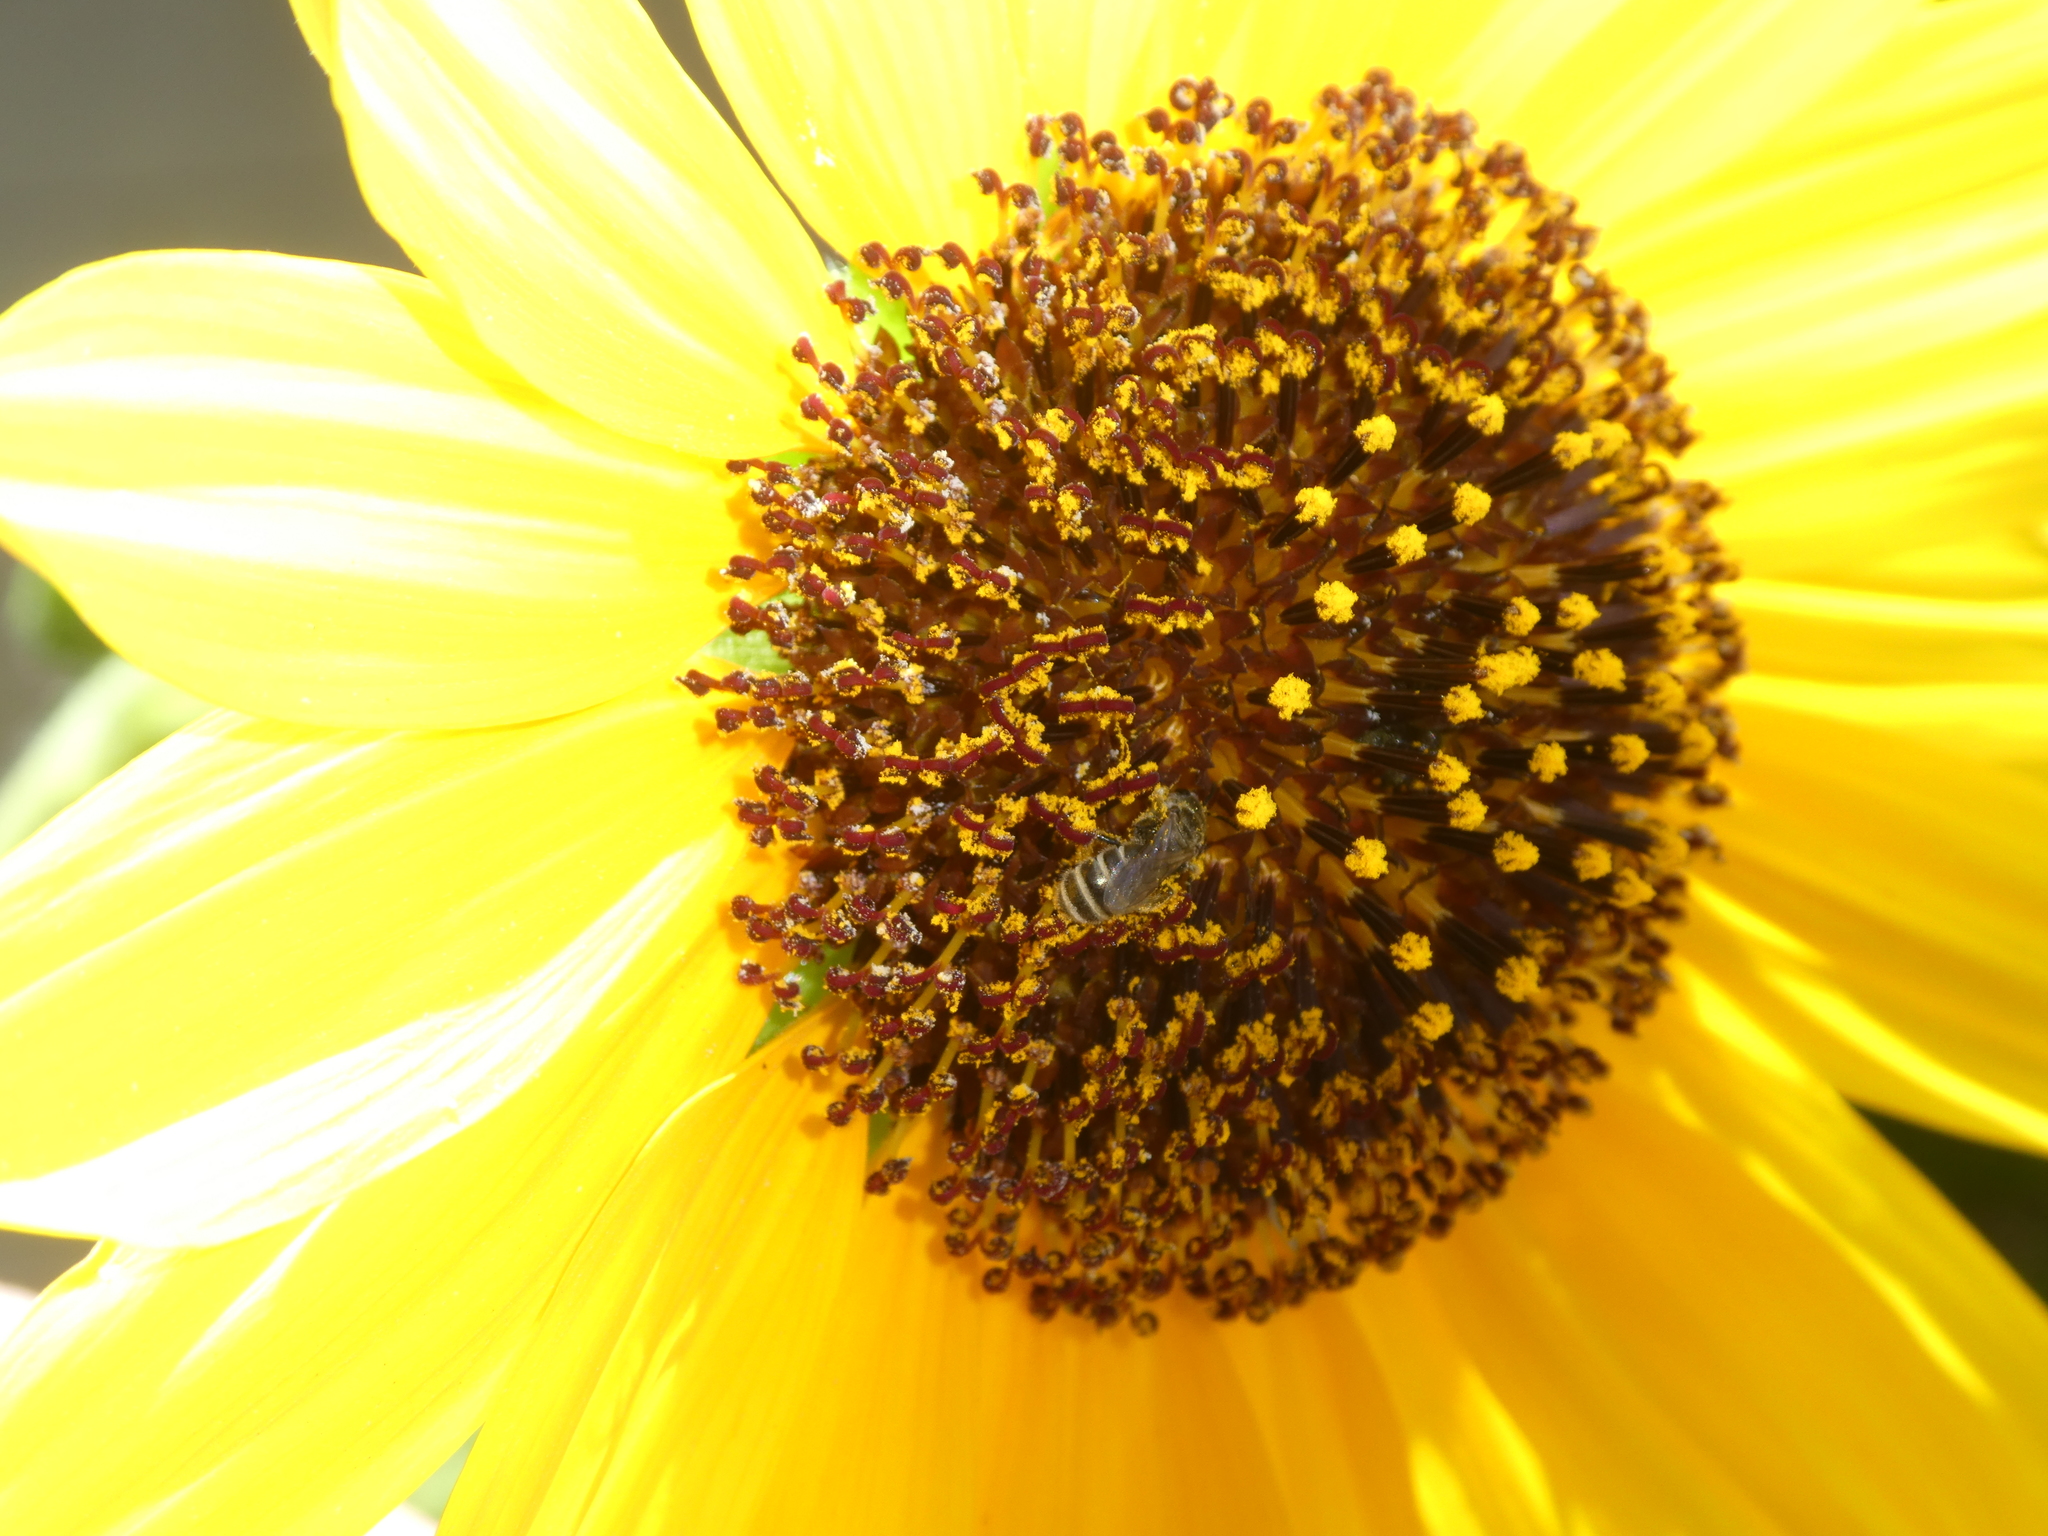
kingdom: Animalia
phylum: Arthropoda
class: Insecta
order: Hymenoptera
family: Halictidae
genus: Halictus
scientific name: Halictus tripartitus
